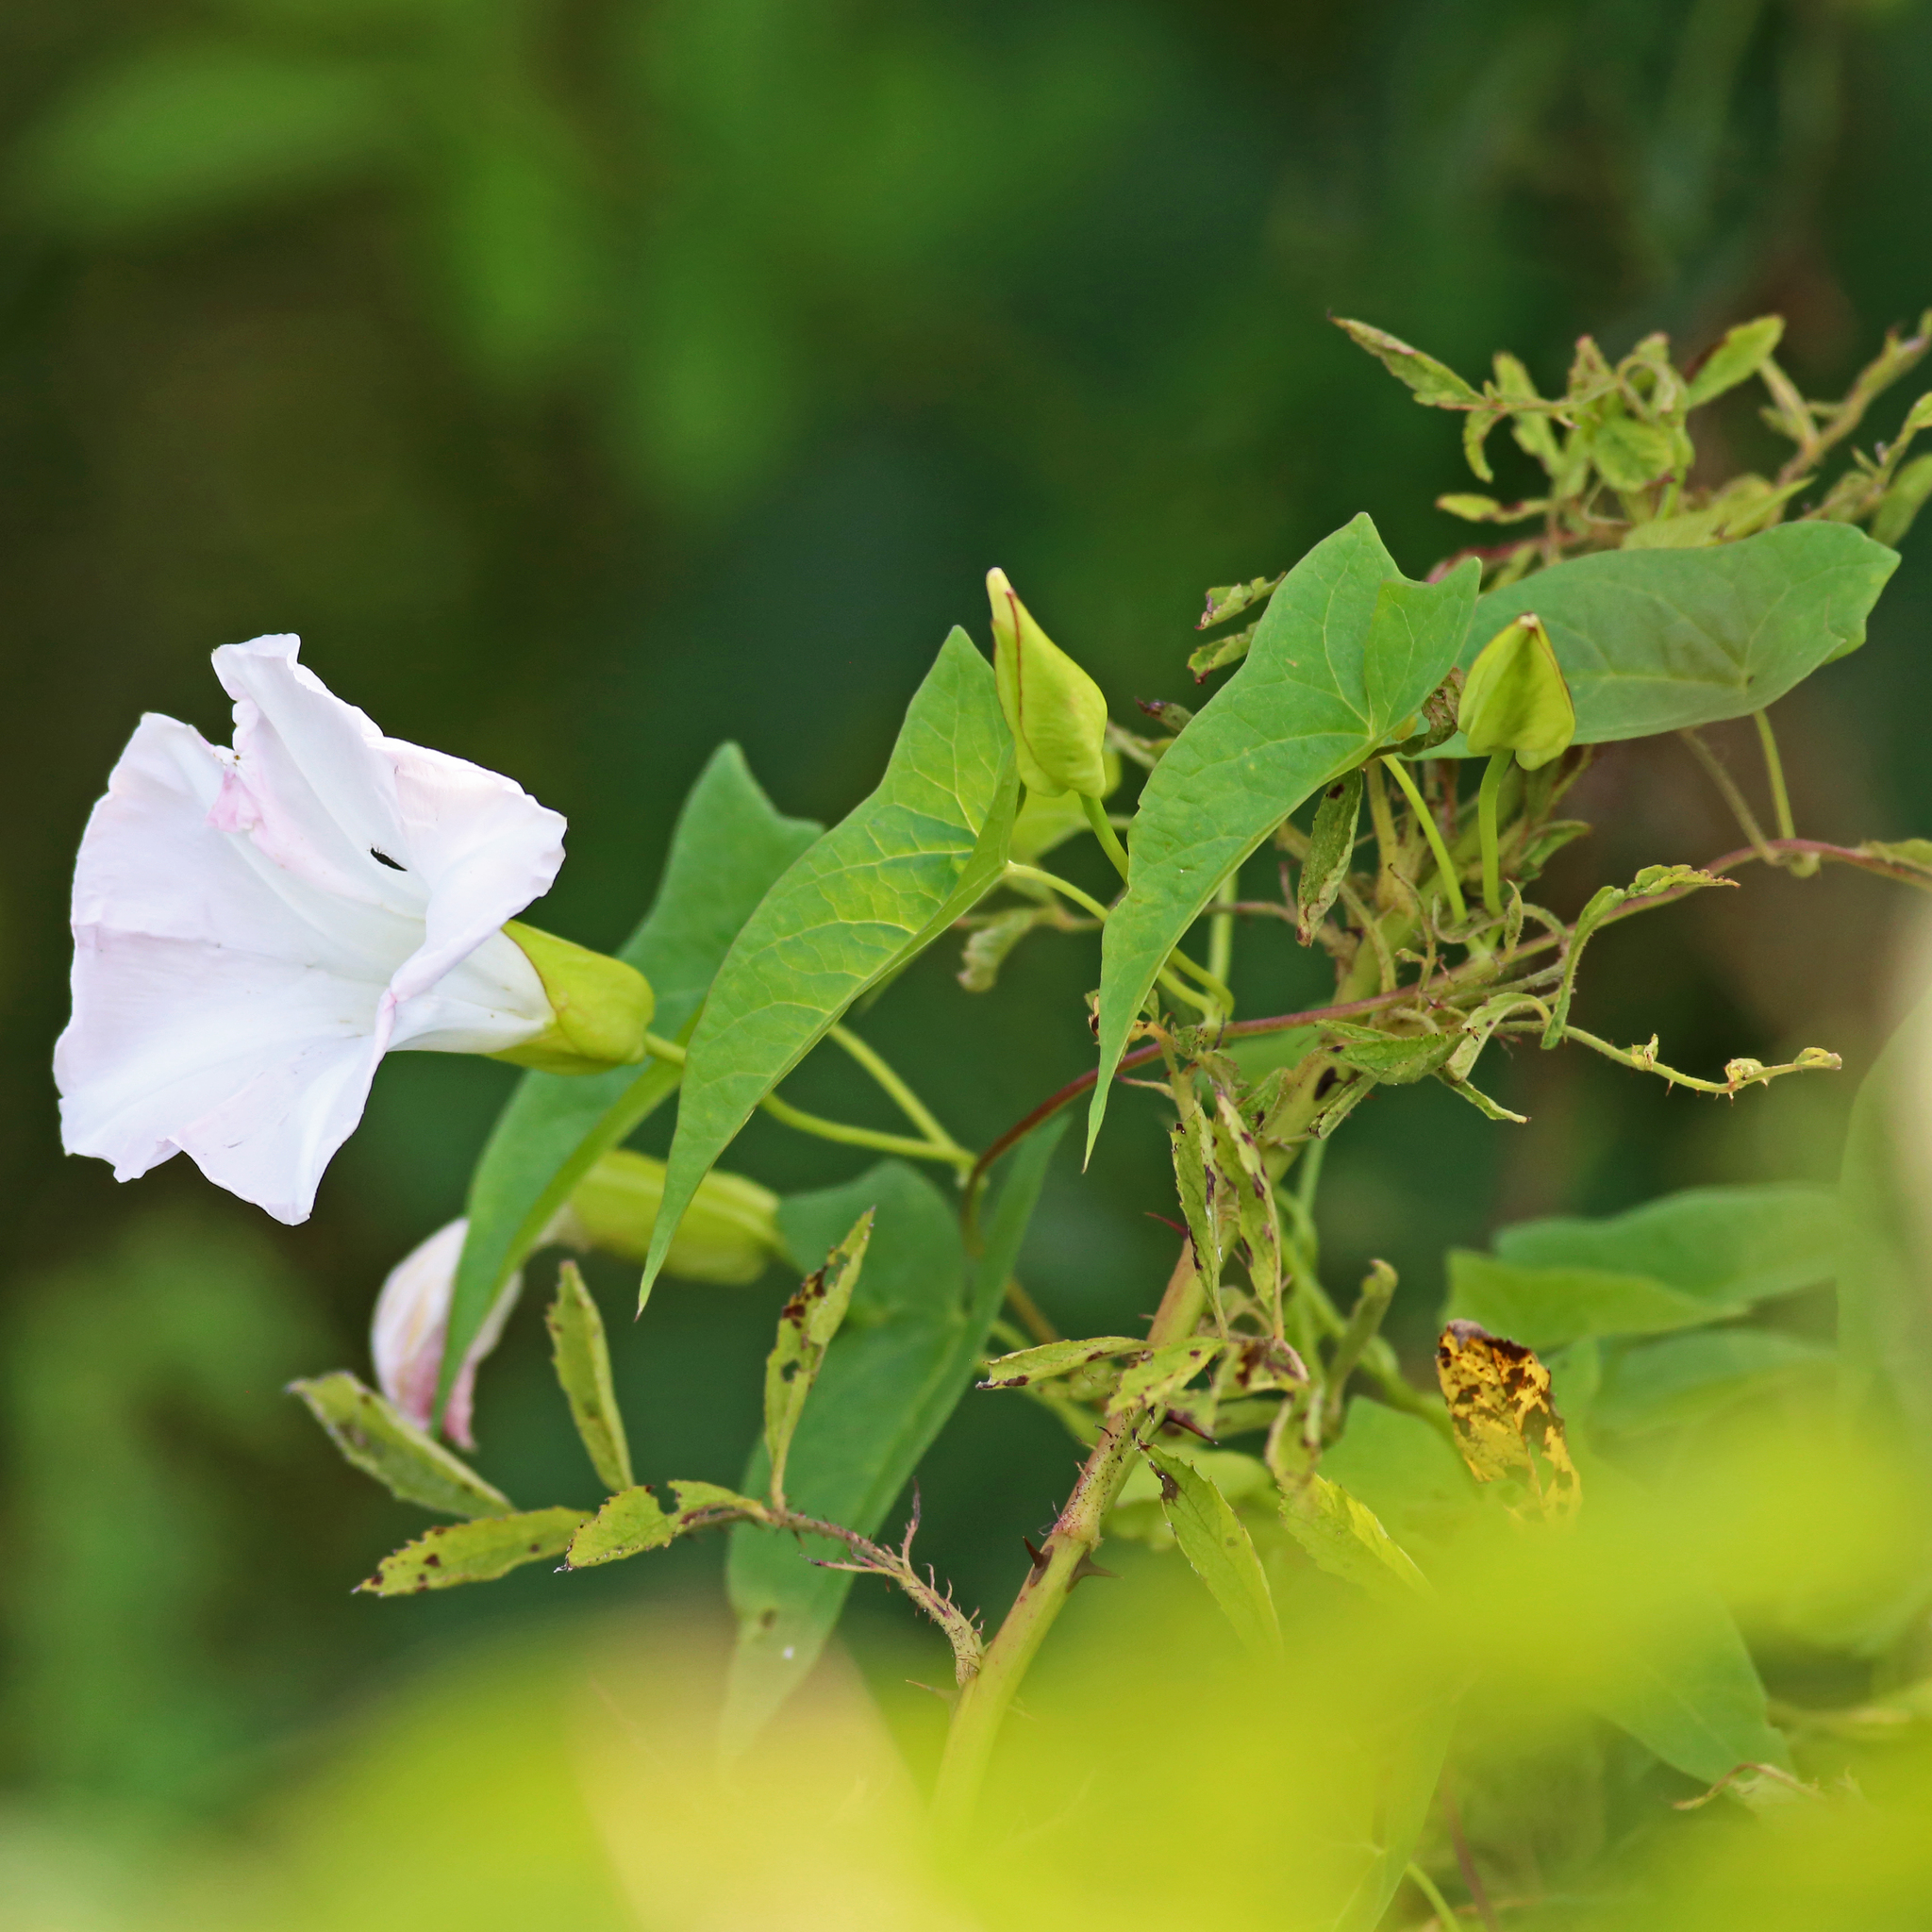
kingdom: Plantae
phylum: Tracheophyta
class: Magnoliopsida
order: Solanales
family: Convolvulaceae
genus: Calystegia
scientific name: Calystegia sepium
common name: Hedge bindweed
